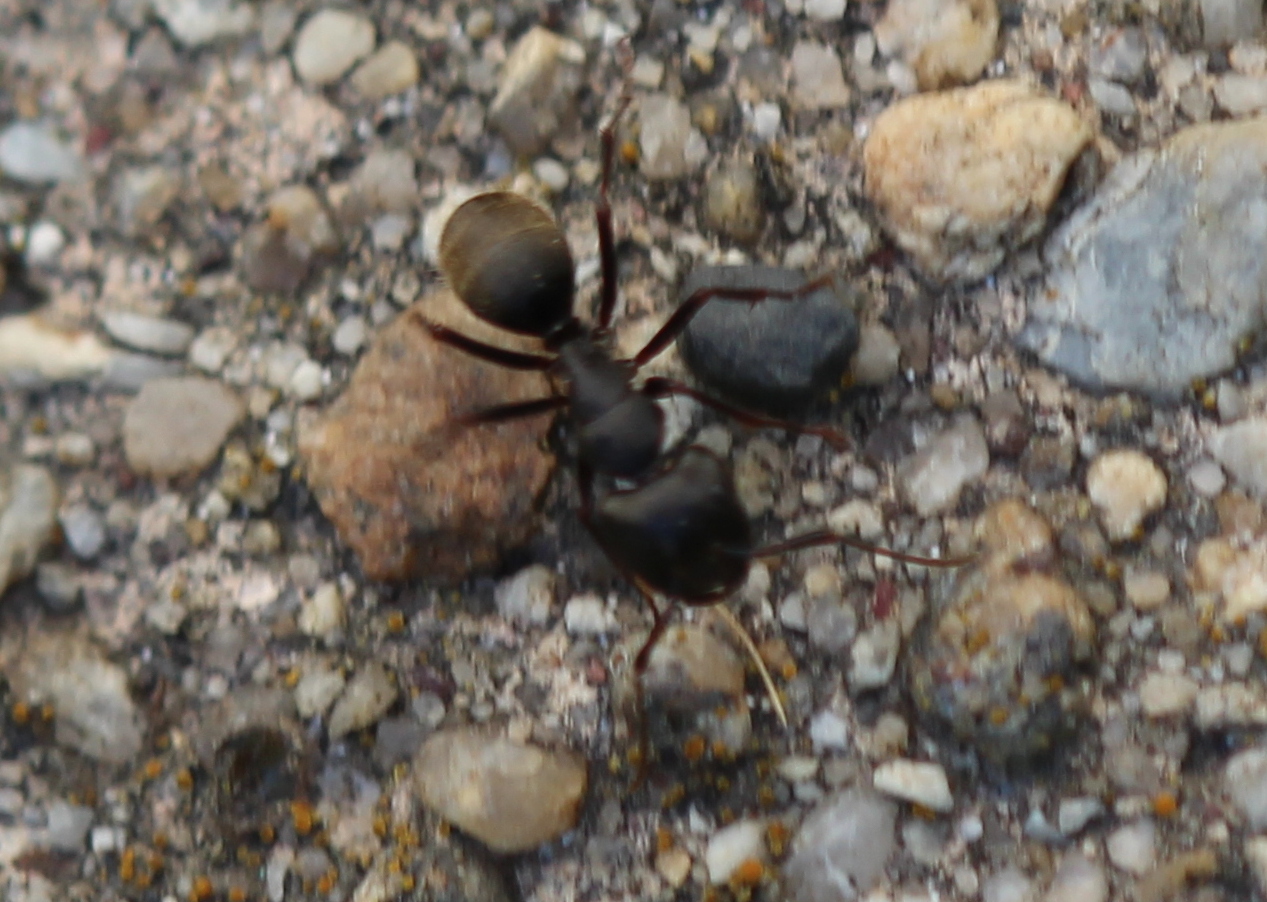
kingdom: Animalia
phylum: Arthropoda
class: Insecta
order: Hymenoptera
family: Formicidae
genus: Camponotus
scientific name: Camponotus pennsylvanicus
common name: Black carpenter ant
